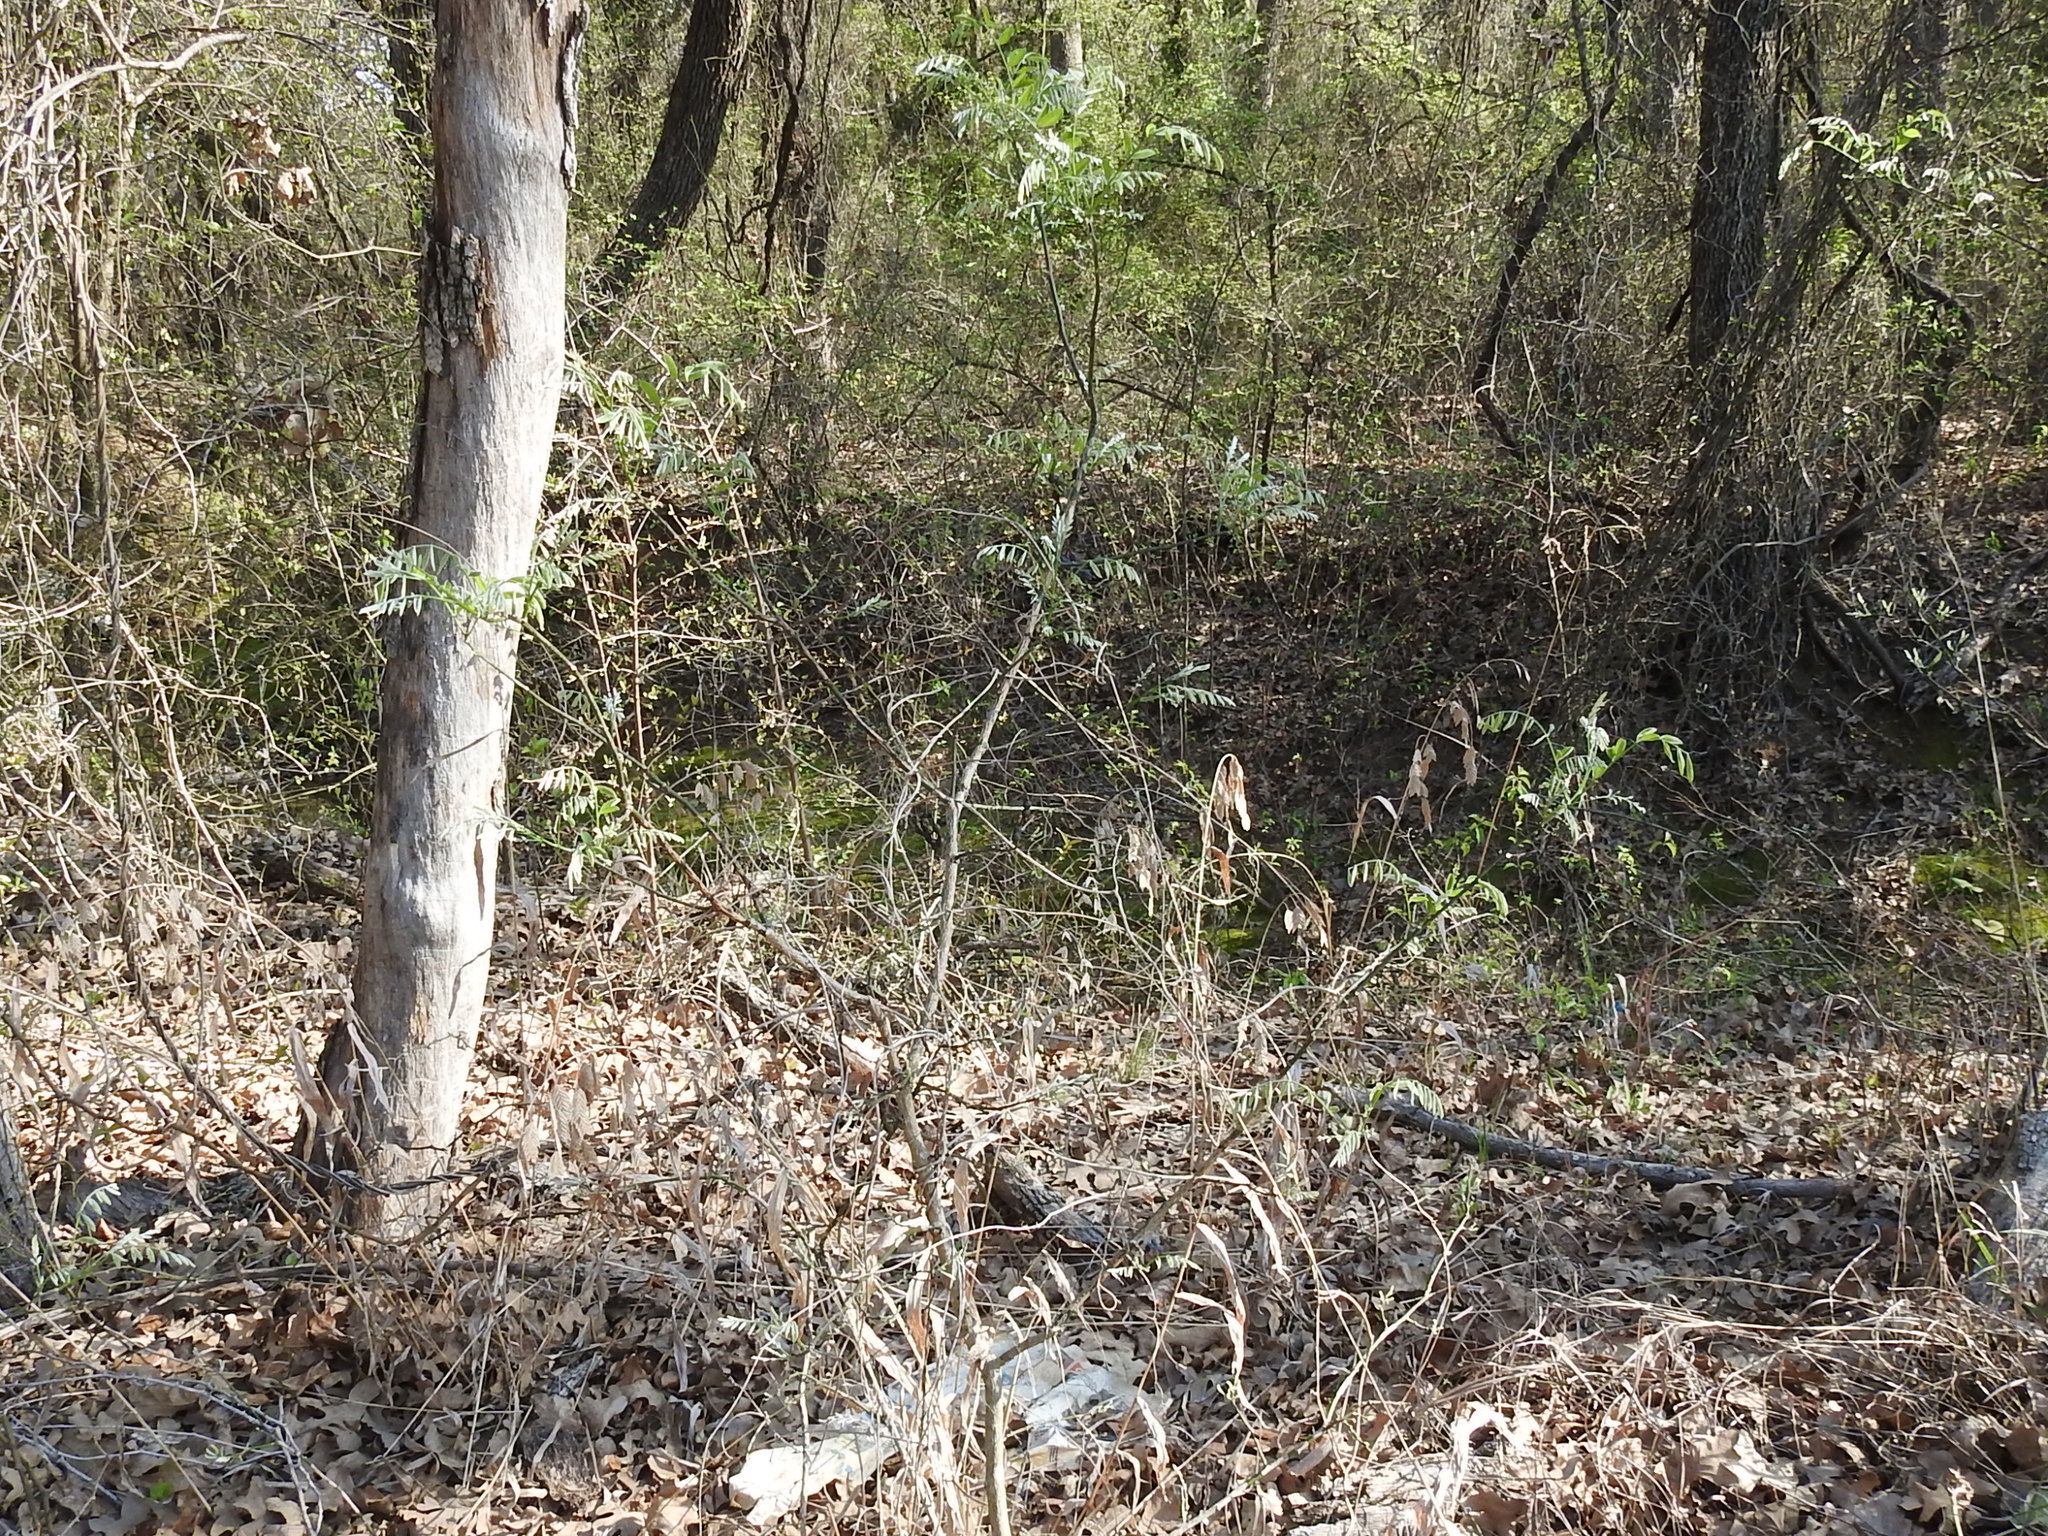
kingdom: Plantae
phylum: Tracheophyta
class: Magnoliopsida
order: Fabales
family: Fabaceae
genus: Styphnolobium
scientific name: Styphnolobium affine
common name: Texas sophora
